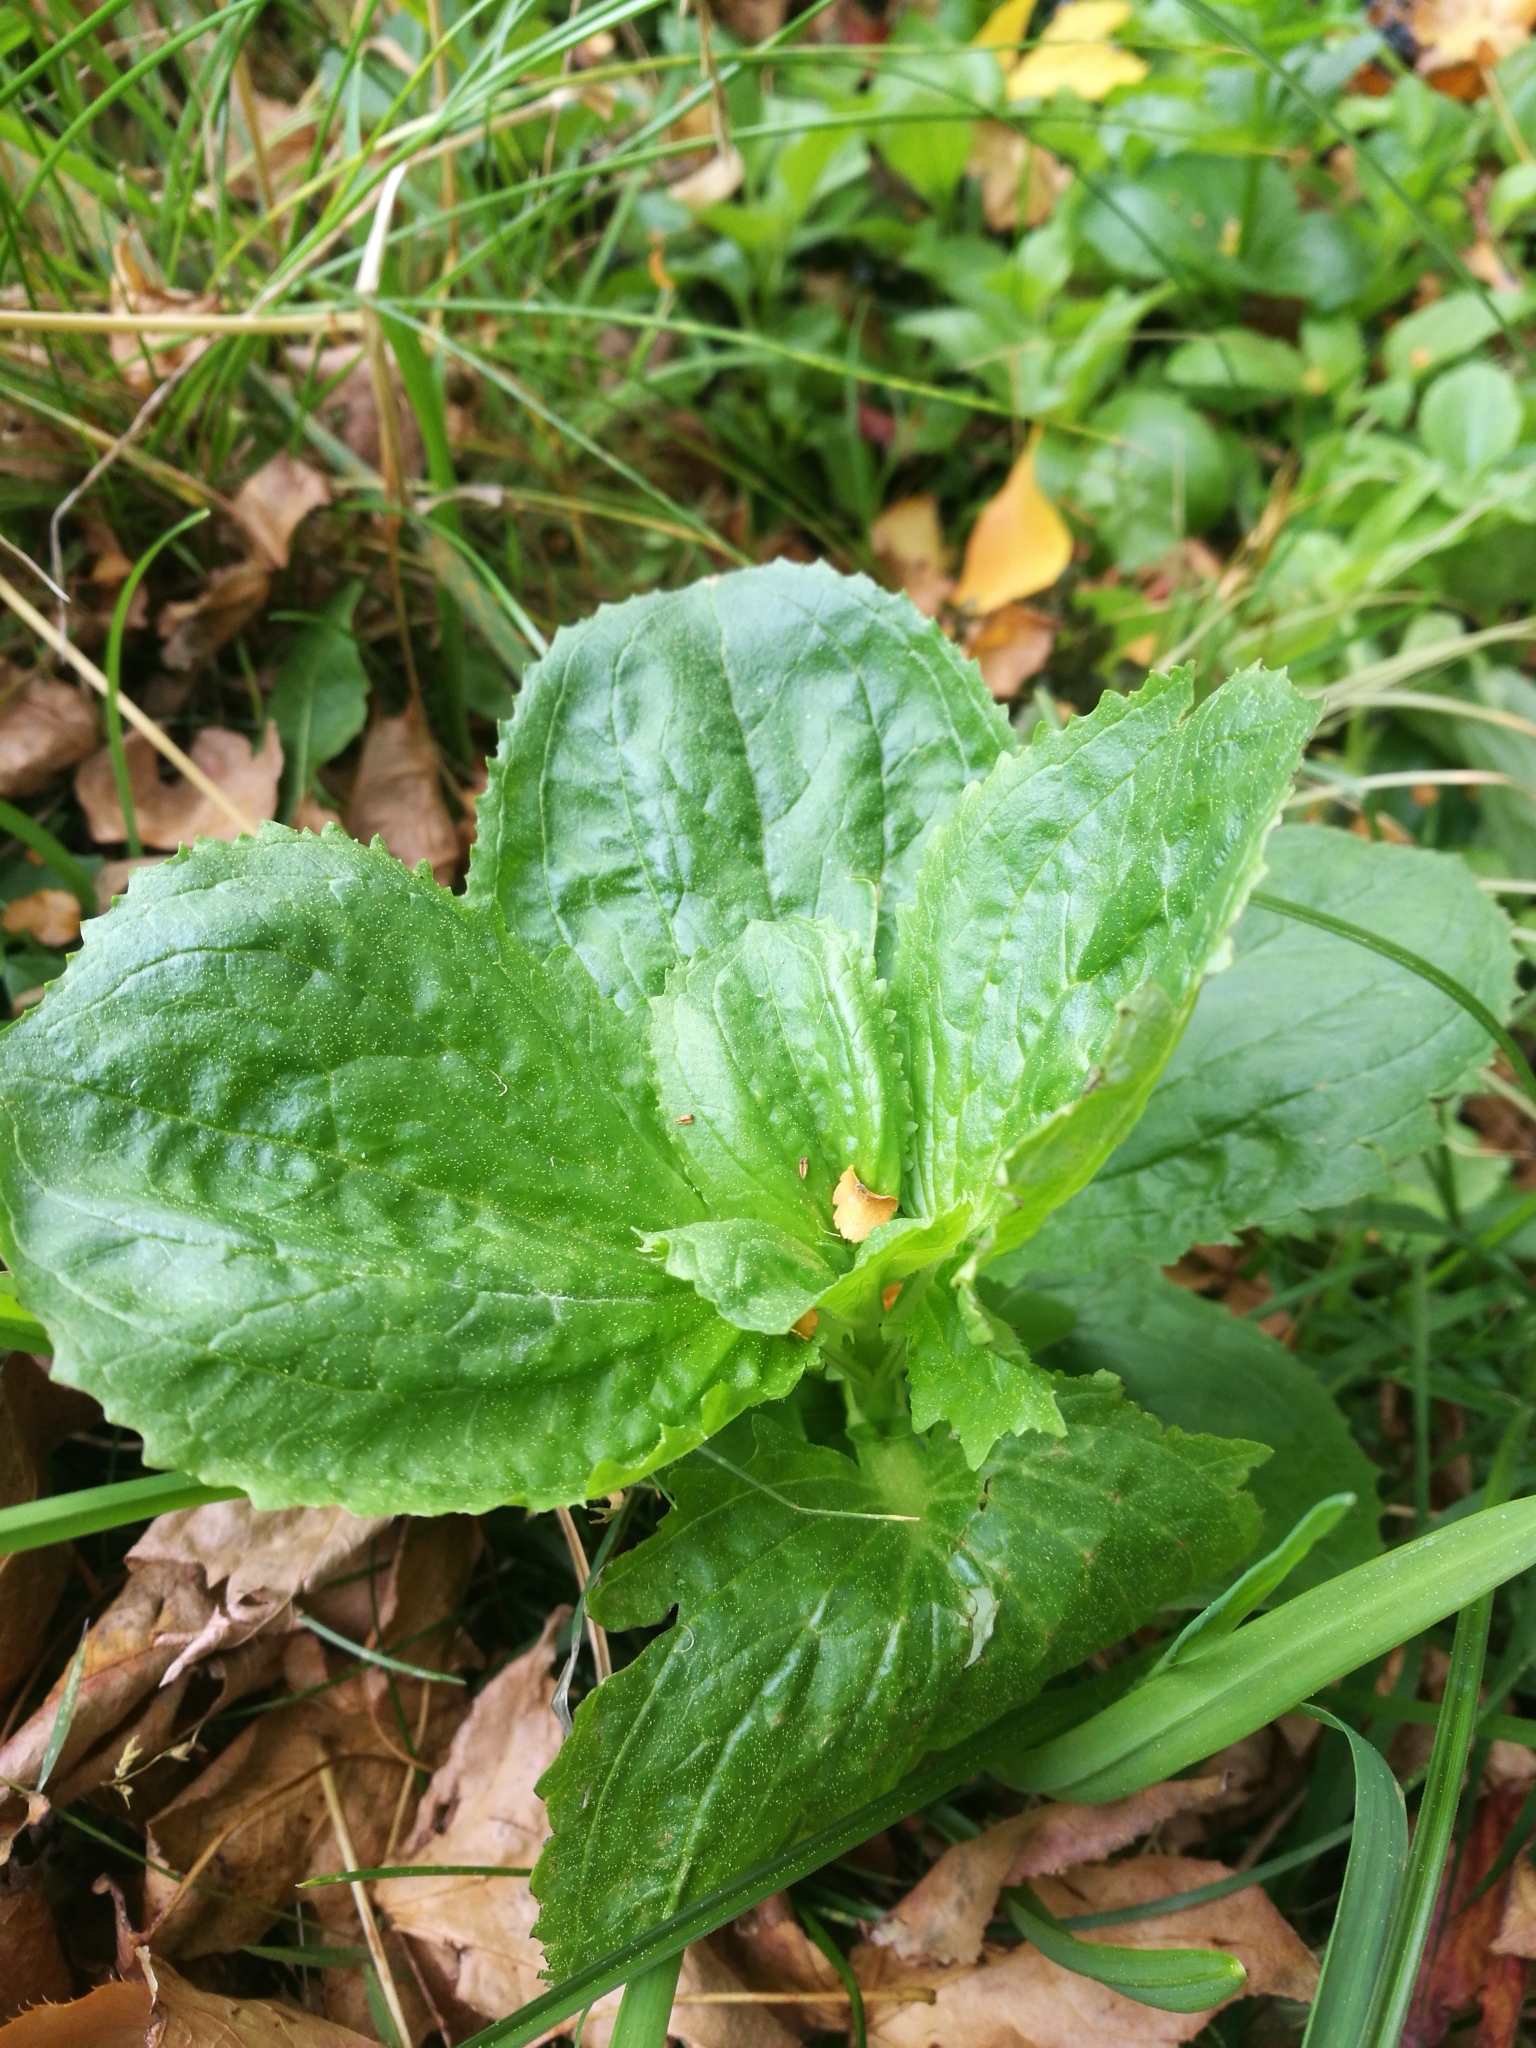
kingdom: Plantae
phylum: Tracheophyta
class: Magnoliopsida
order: Lamiales
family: Phrymaceae
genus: Erythranthe
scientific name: Erythranthe guttata
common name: Monkeyflower
